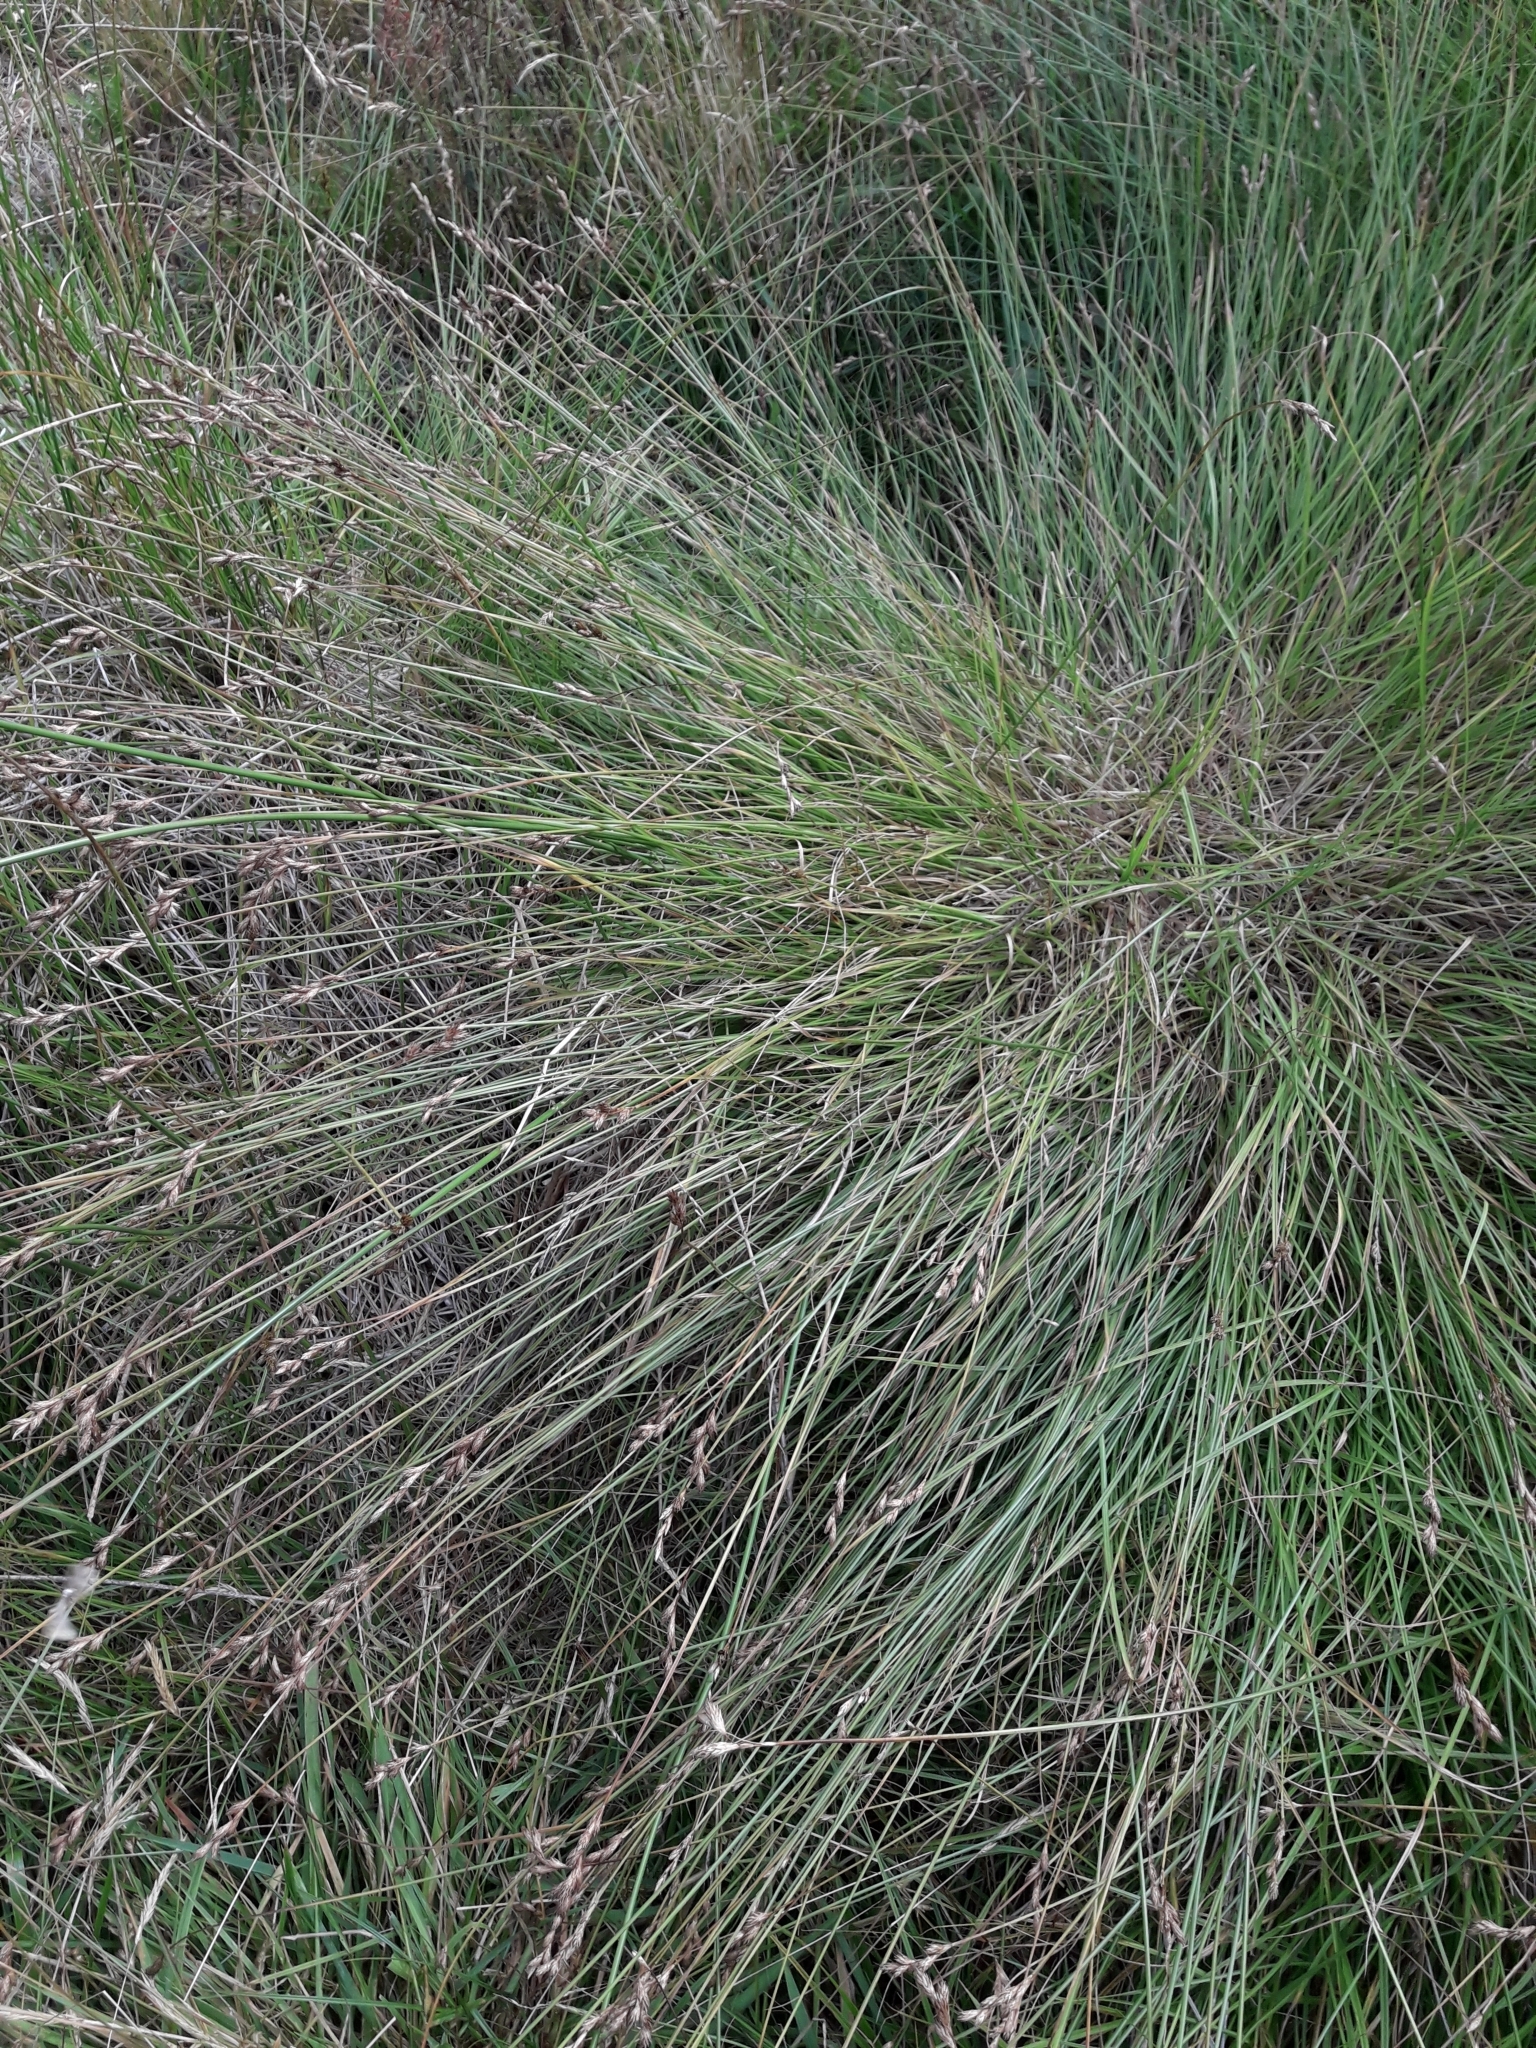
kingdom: Plantae
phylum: Tracheophyta
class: Liliopsida
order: Poales
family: Cyperaceae
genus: Carex
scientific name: Carex leporina
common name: Oval sedge
